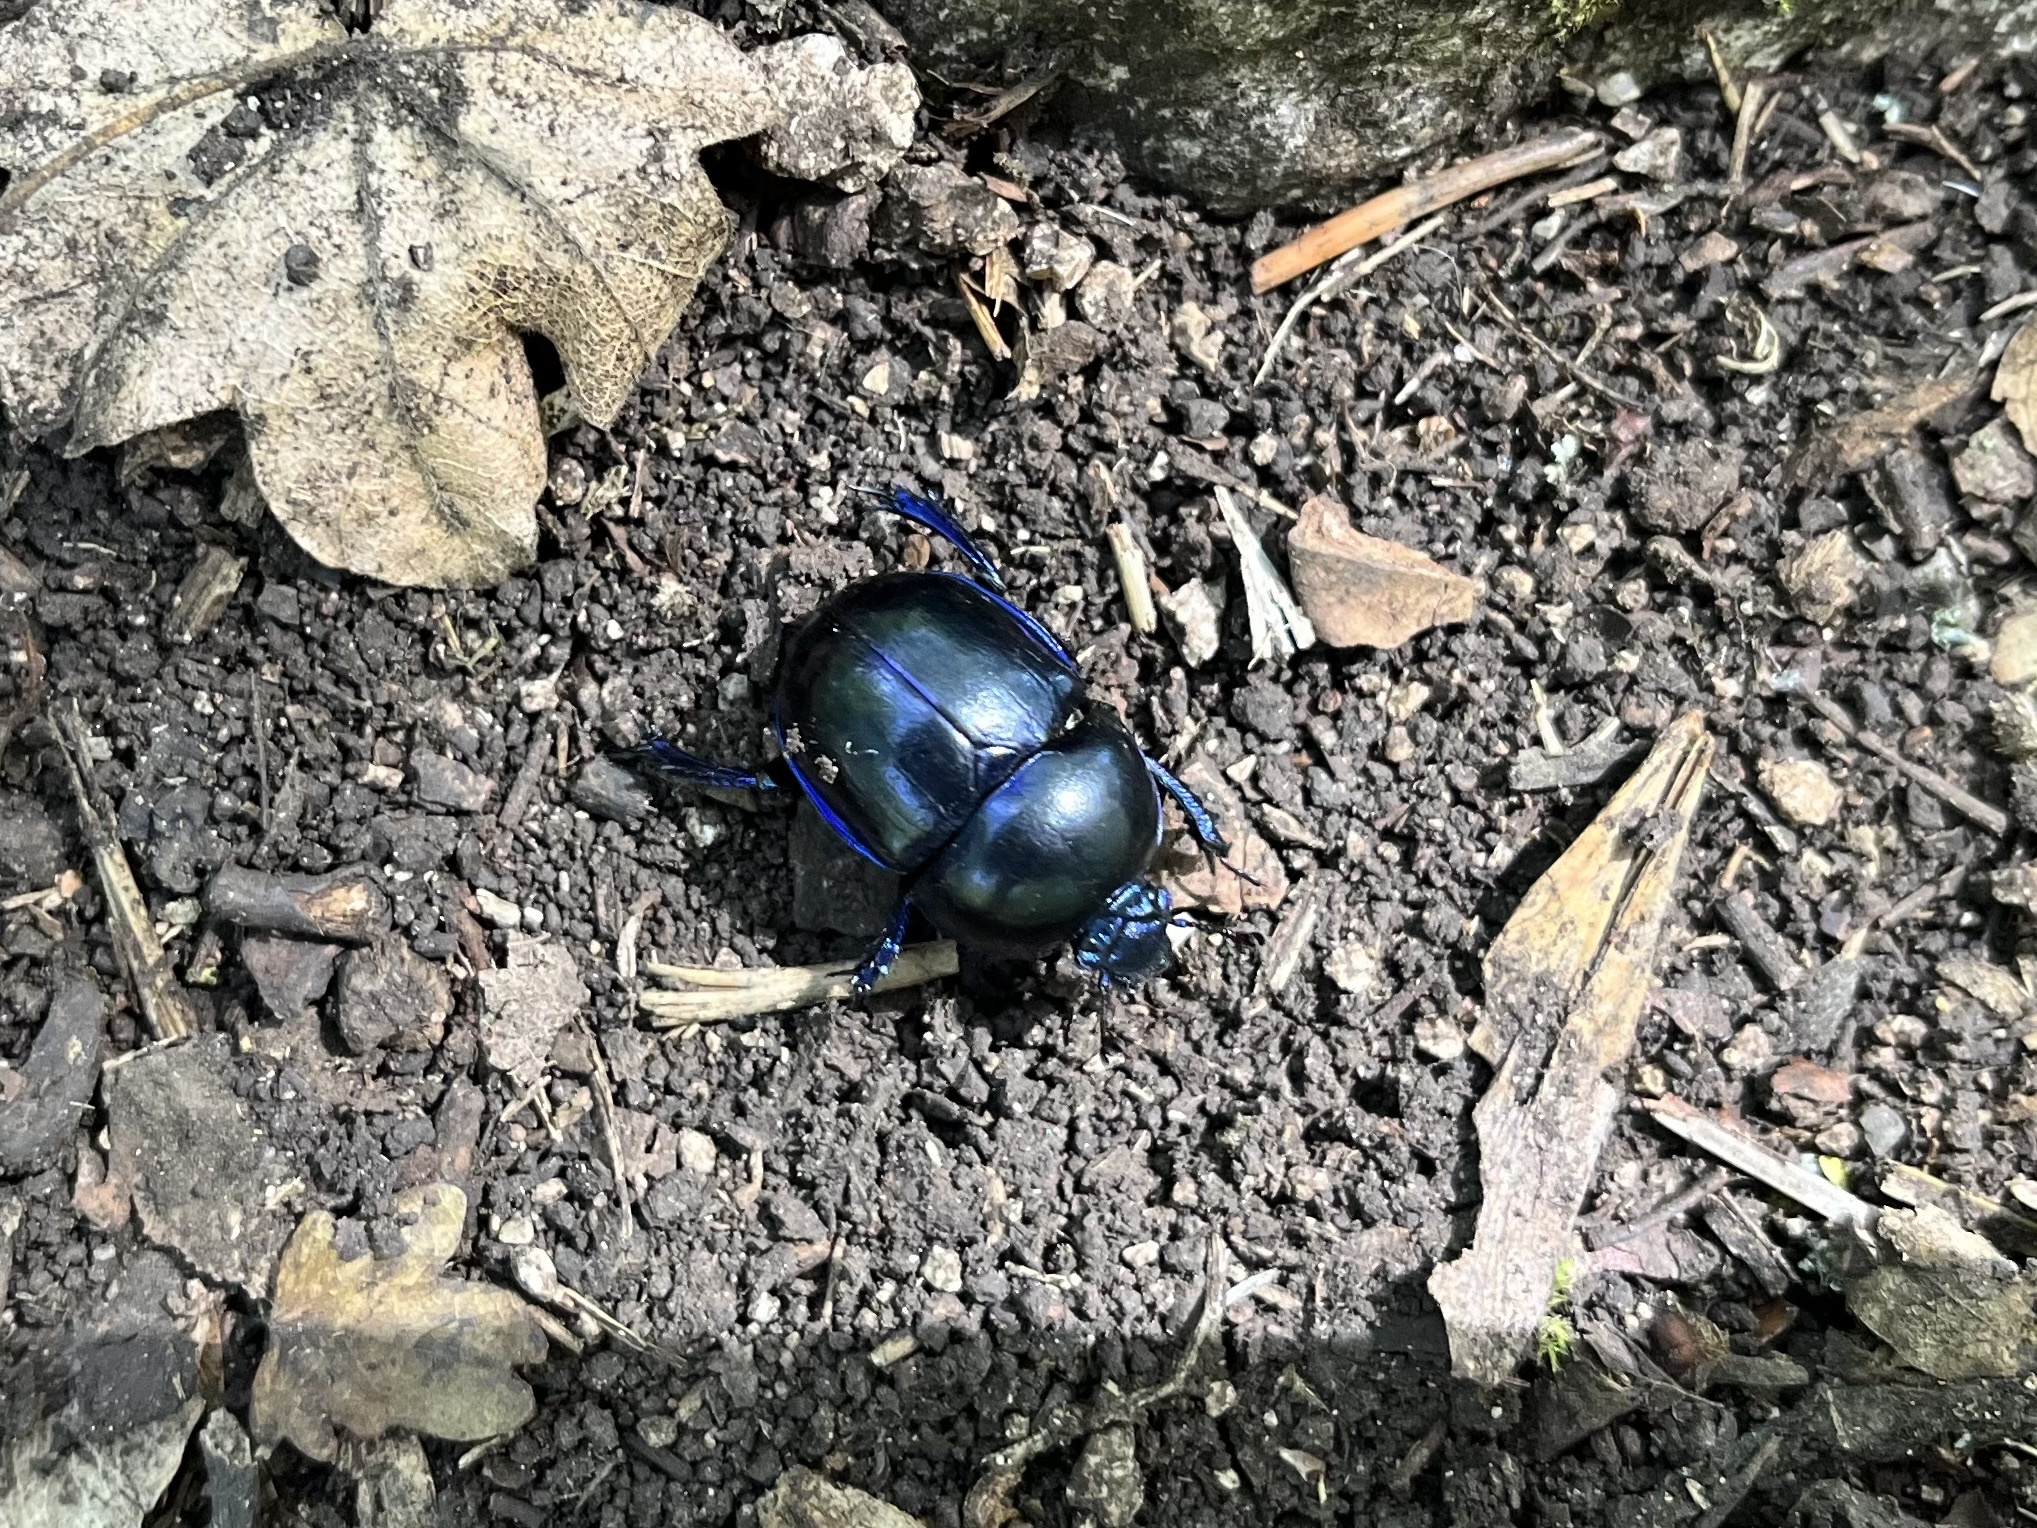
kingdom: Animalia
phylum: Arthropoda
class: Insecta
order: Coleoptera
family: Geotrupidae
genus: Trypocopris
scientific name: Trypocopris vernalis
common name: Spring dumbledor
